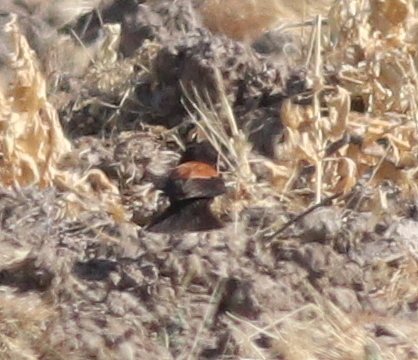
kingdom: Animalia
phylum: Chordata
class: Aves
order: Passeriformes
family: Tyrannidae
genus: Lessonia
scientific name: Lessonia rufa
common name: Austral negrito
